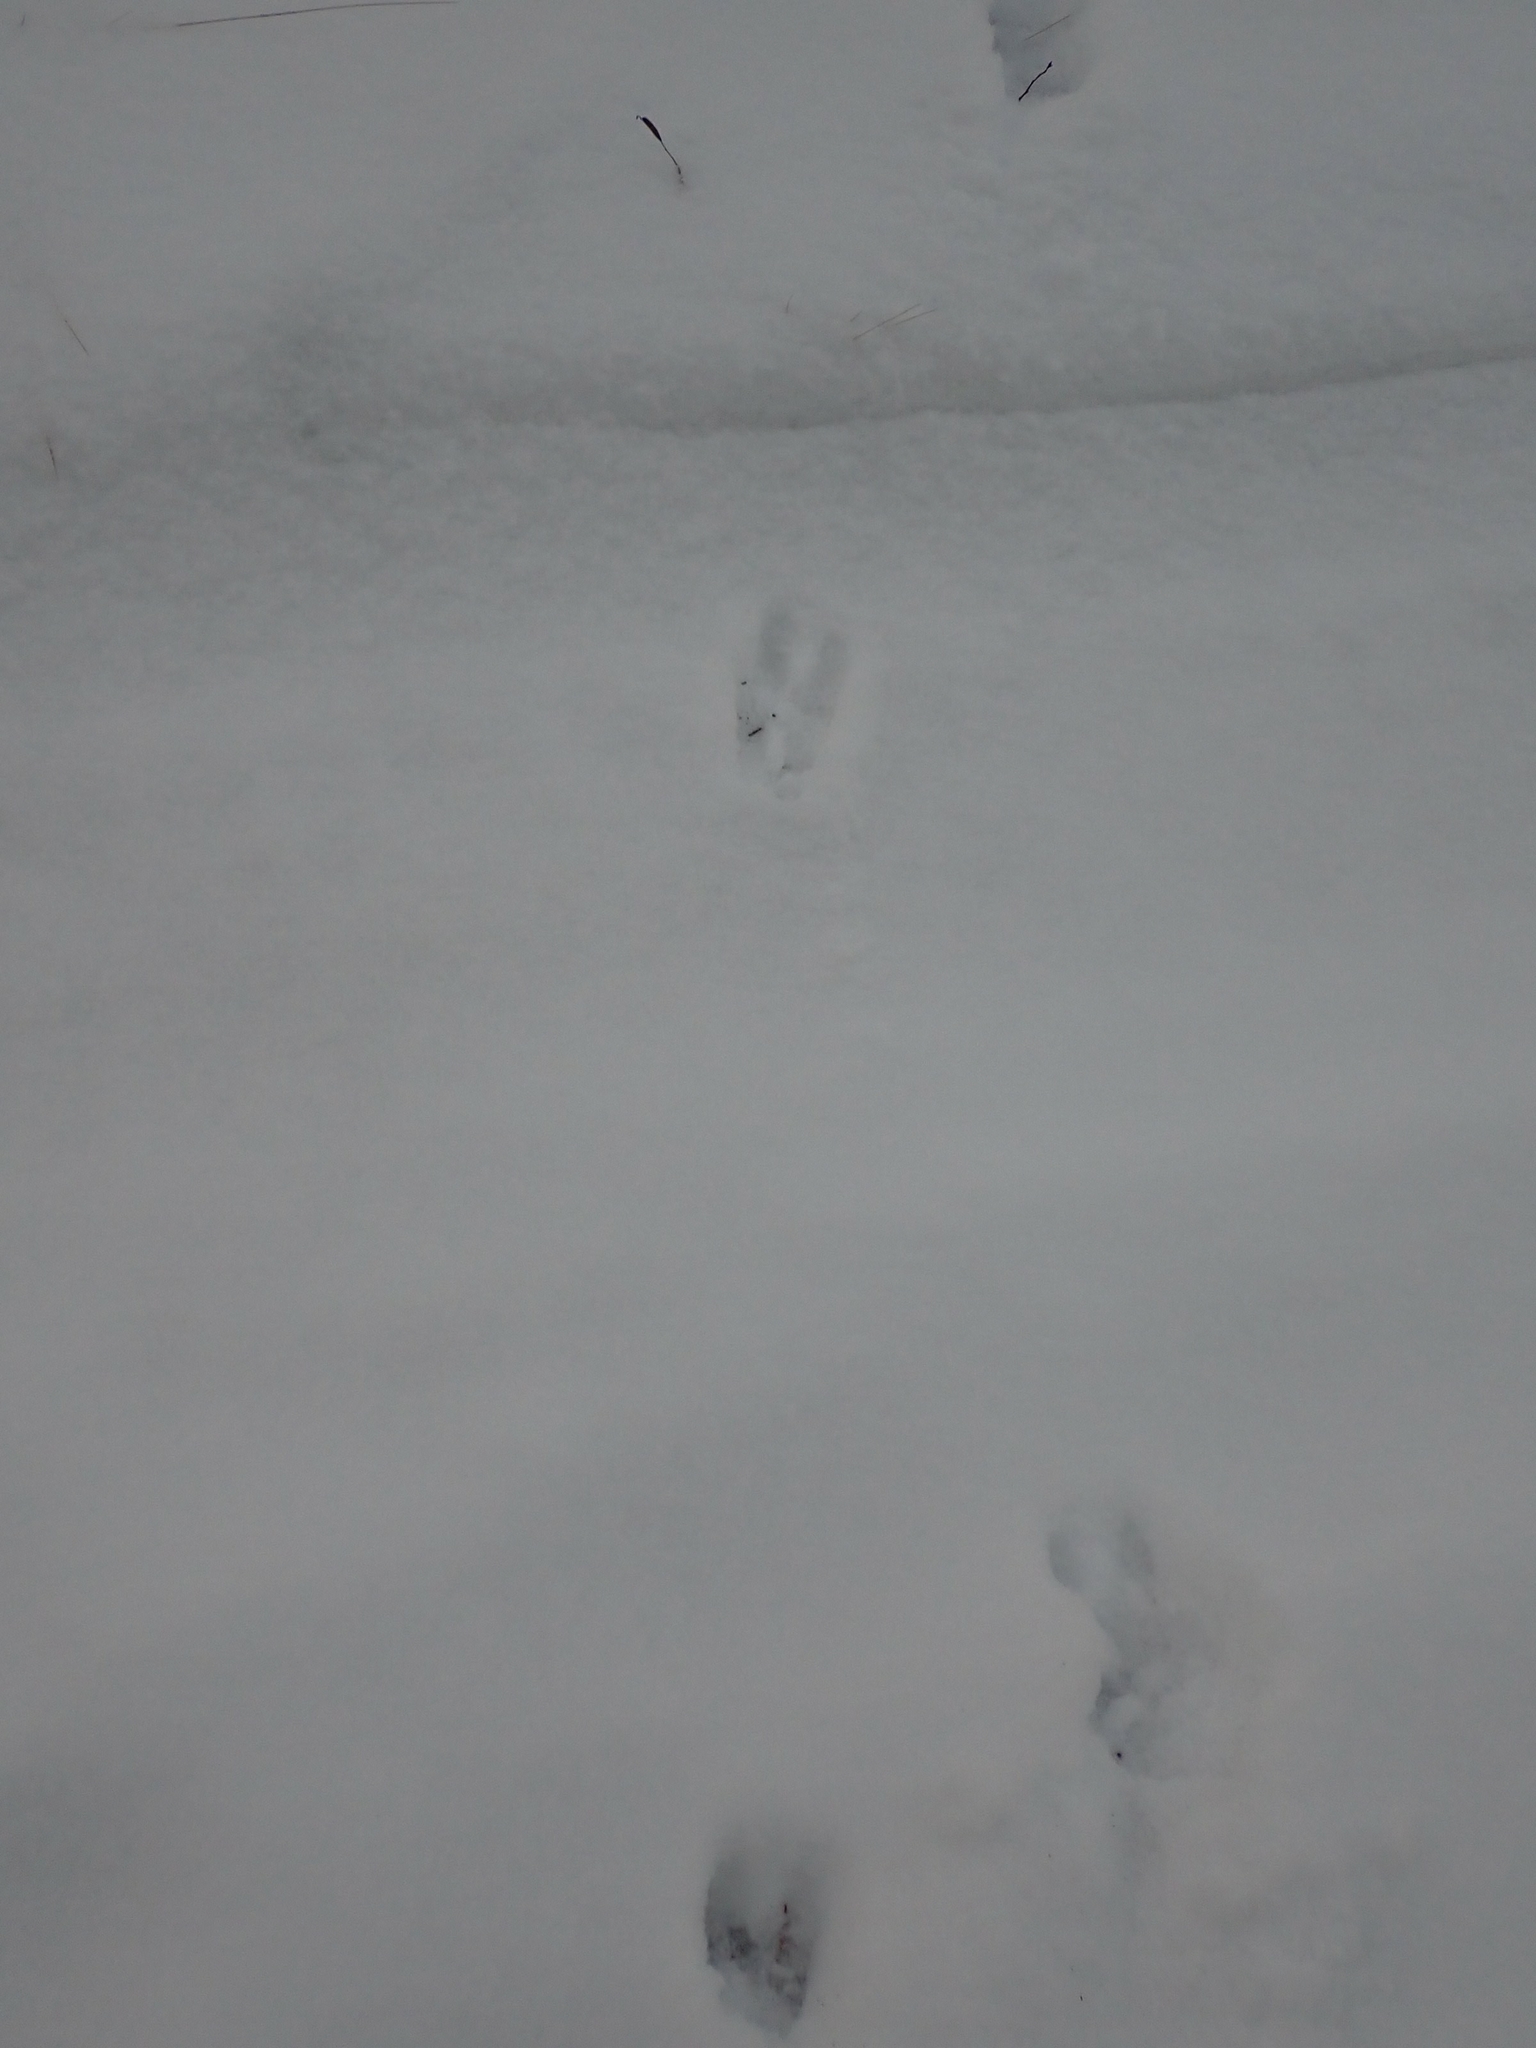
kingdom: Animalia
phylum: Chordata
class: Mammalia
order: Artiodactyla
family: Cervidae
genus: Odocoileus
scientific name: Odocoileus virginianus
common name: White-tailed deer
